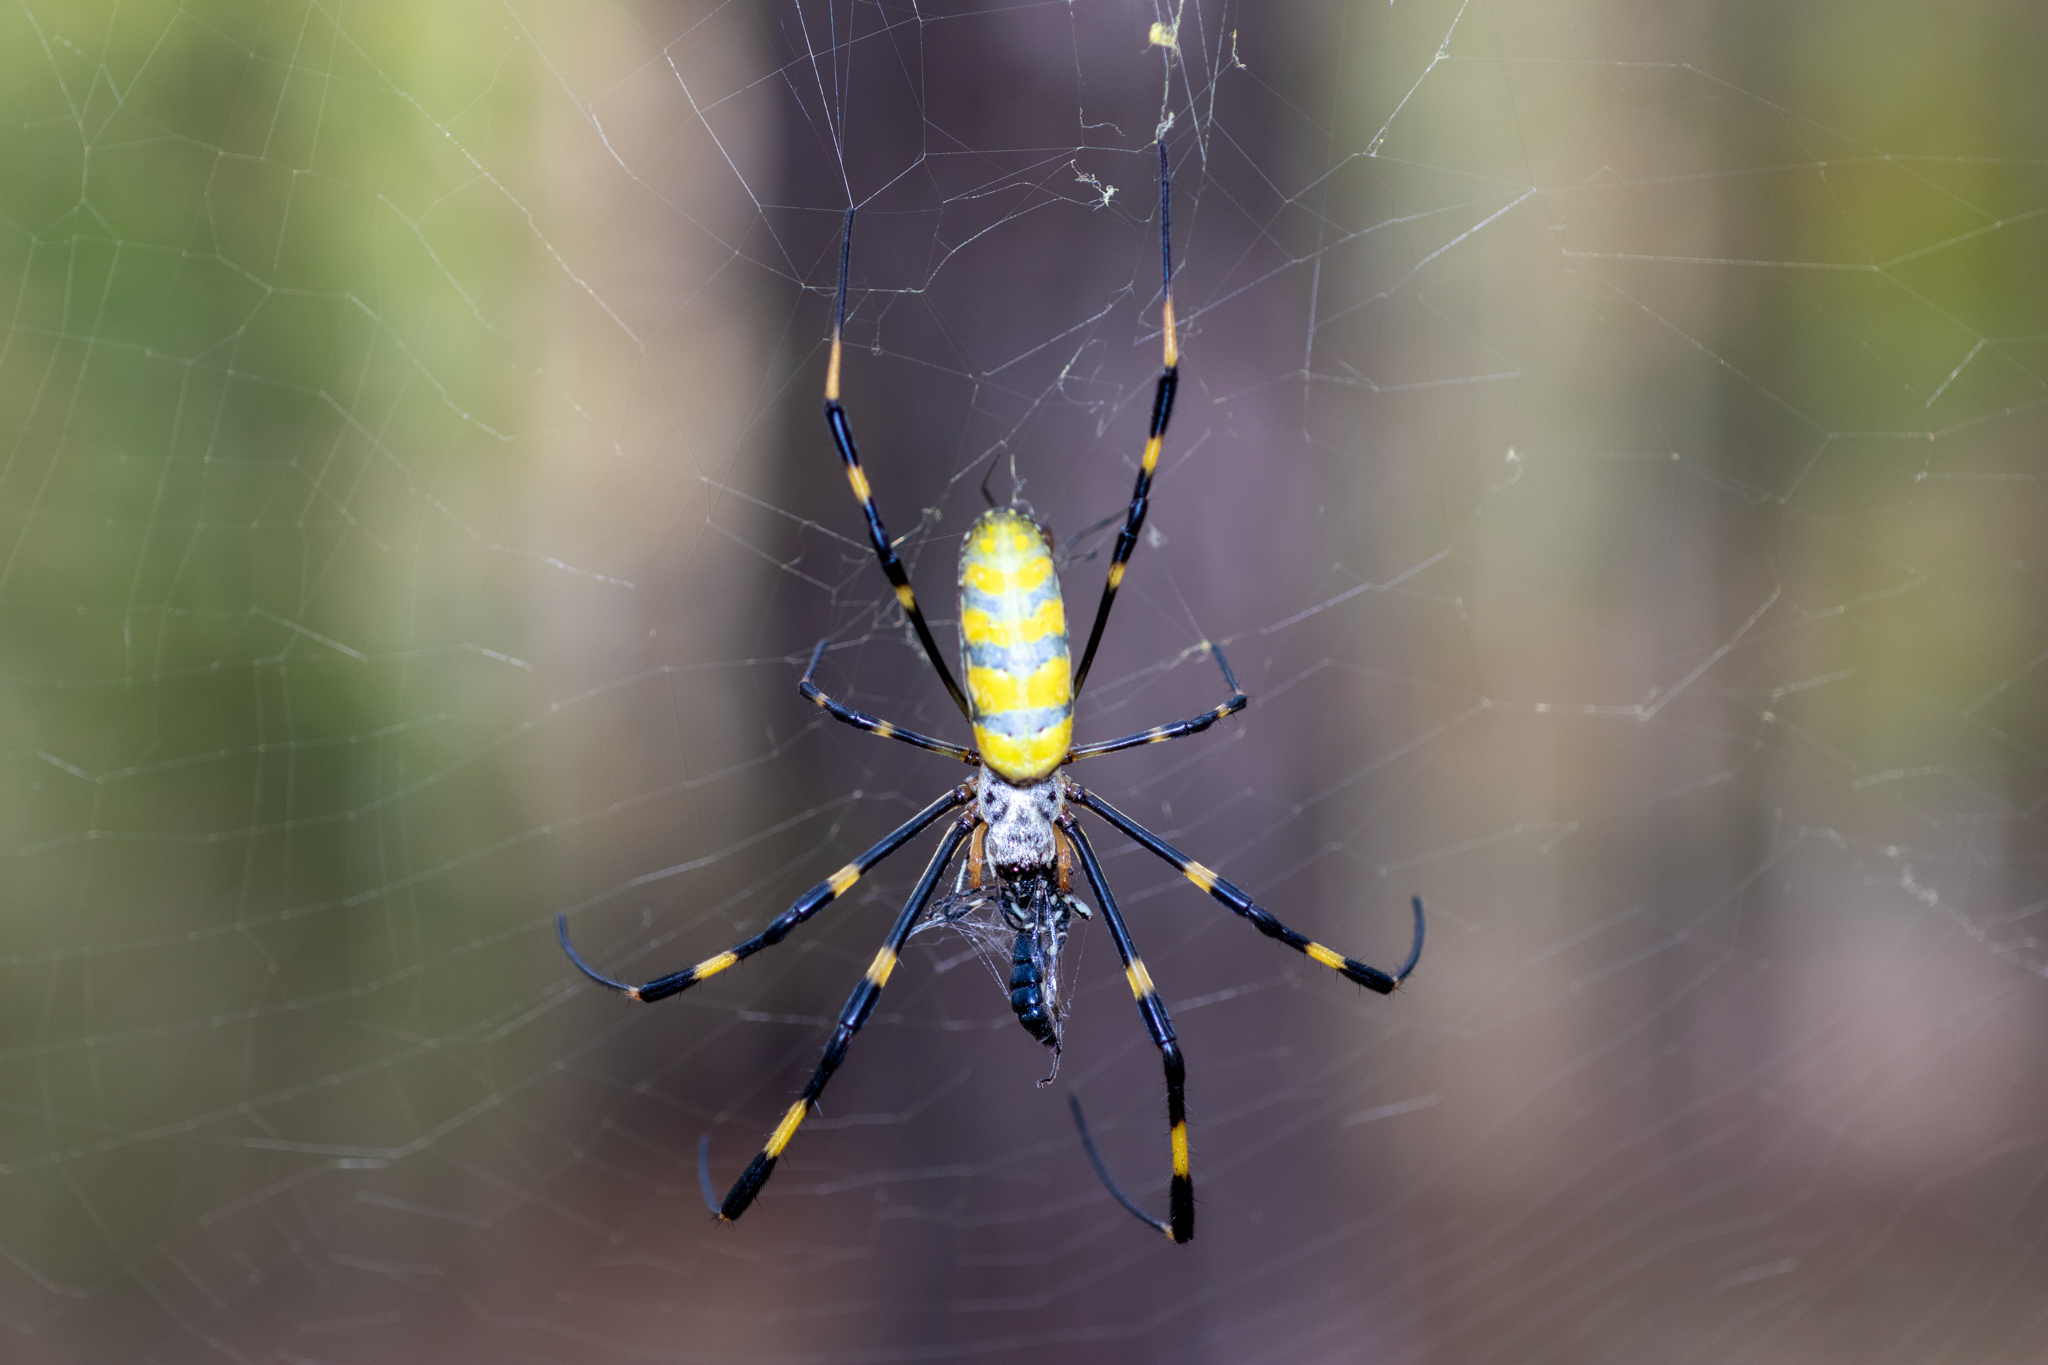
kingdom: Animalia
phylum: Arthropoda
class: Arachnida
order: Araneae
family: Araneidae
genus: Trichonephila
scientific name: Trichonephila clavata
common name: Jorō spider
